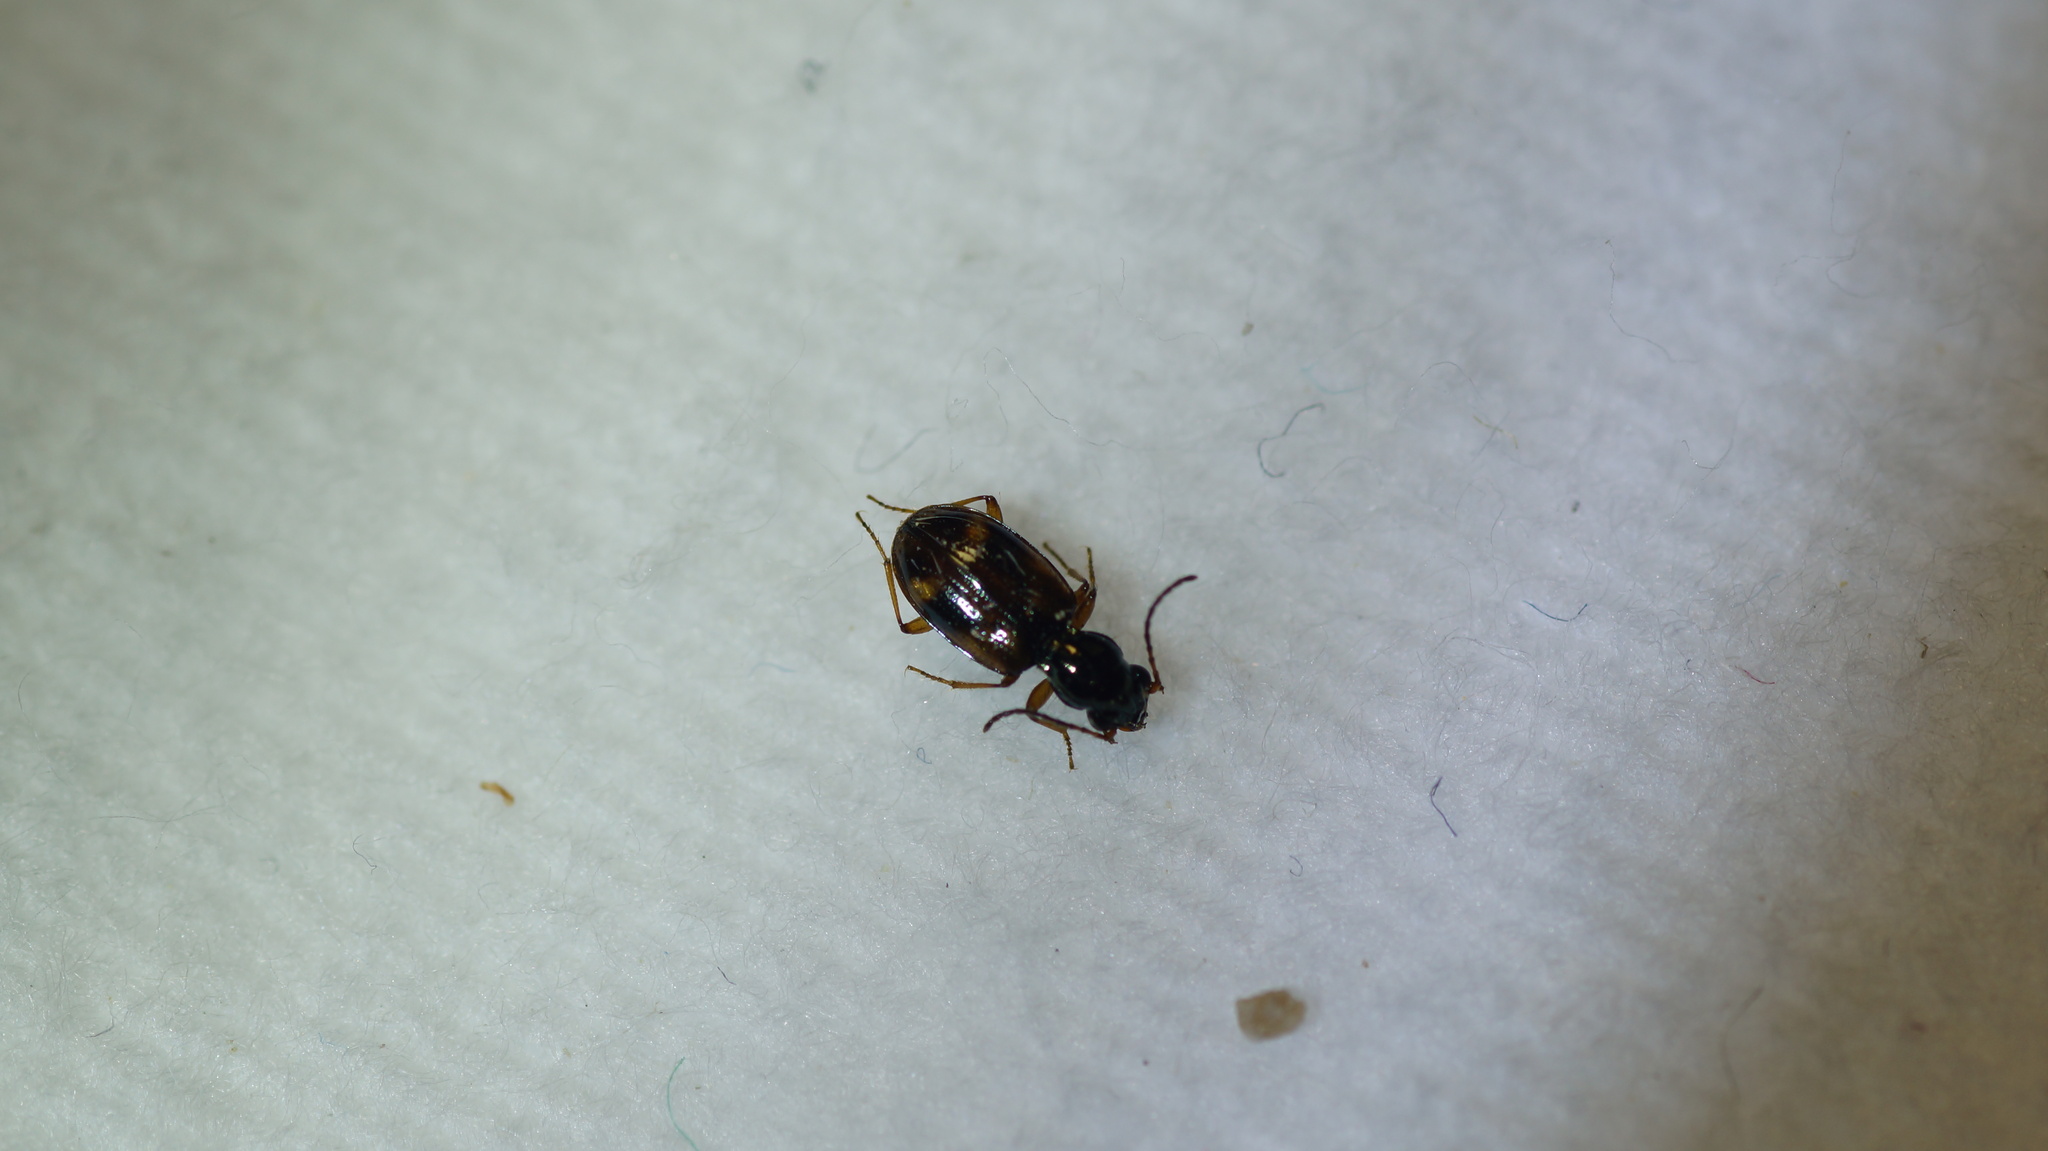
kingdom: Animalia
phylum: Arthropoda
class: Insecta
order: Coleoptera
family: Carabidae
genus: Bembidion
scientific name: Bembidion articulatum
